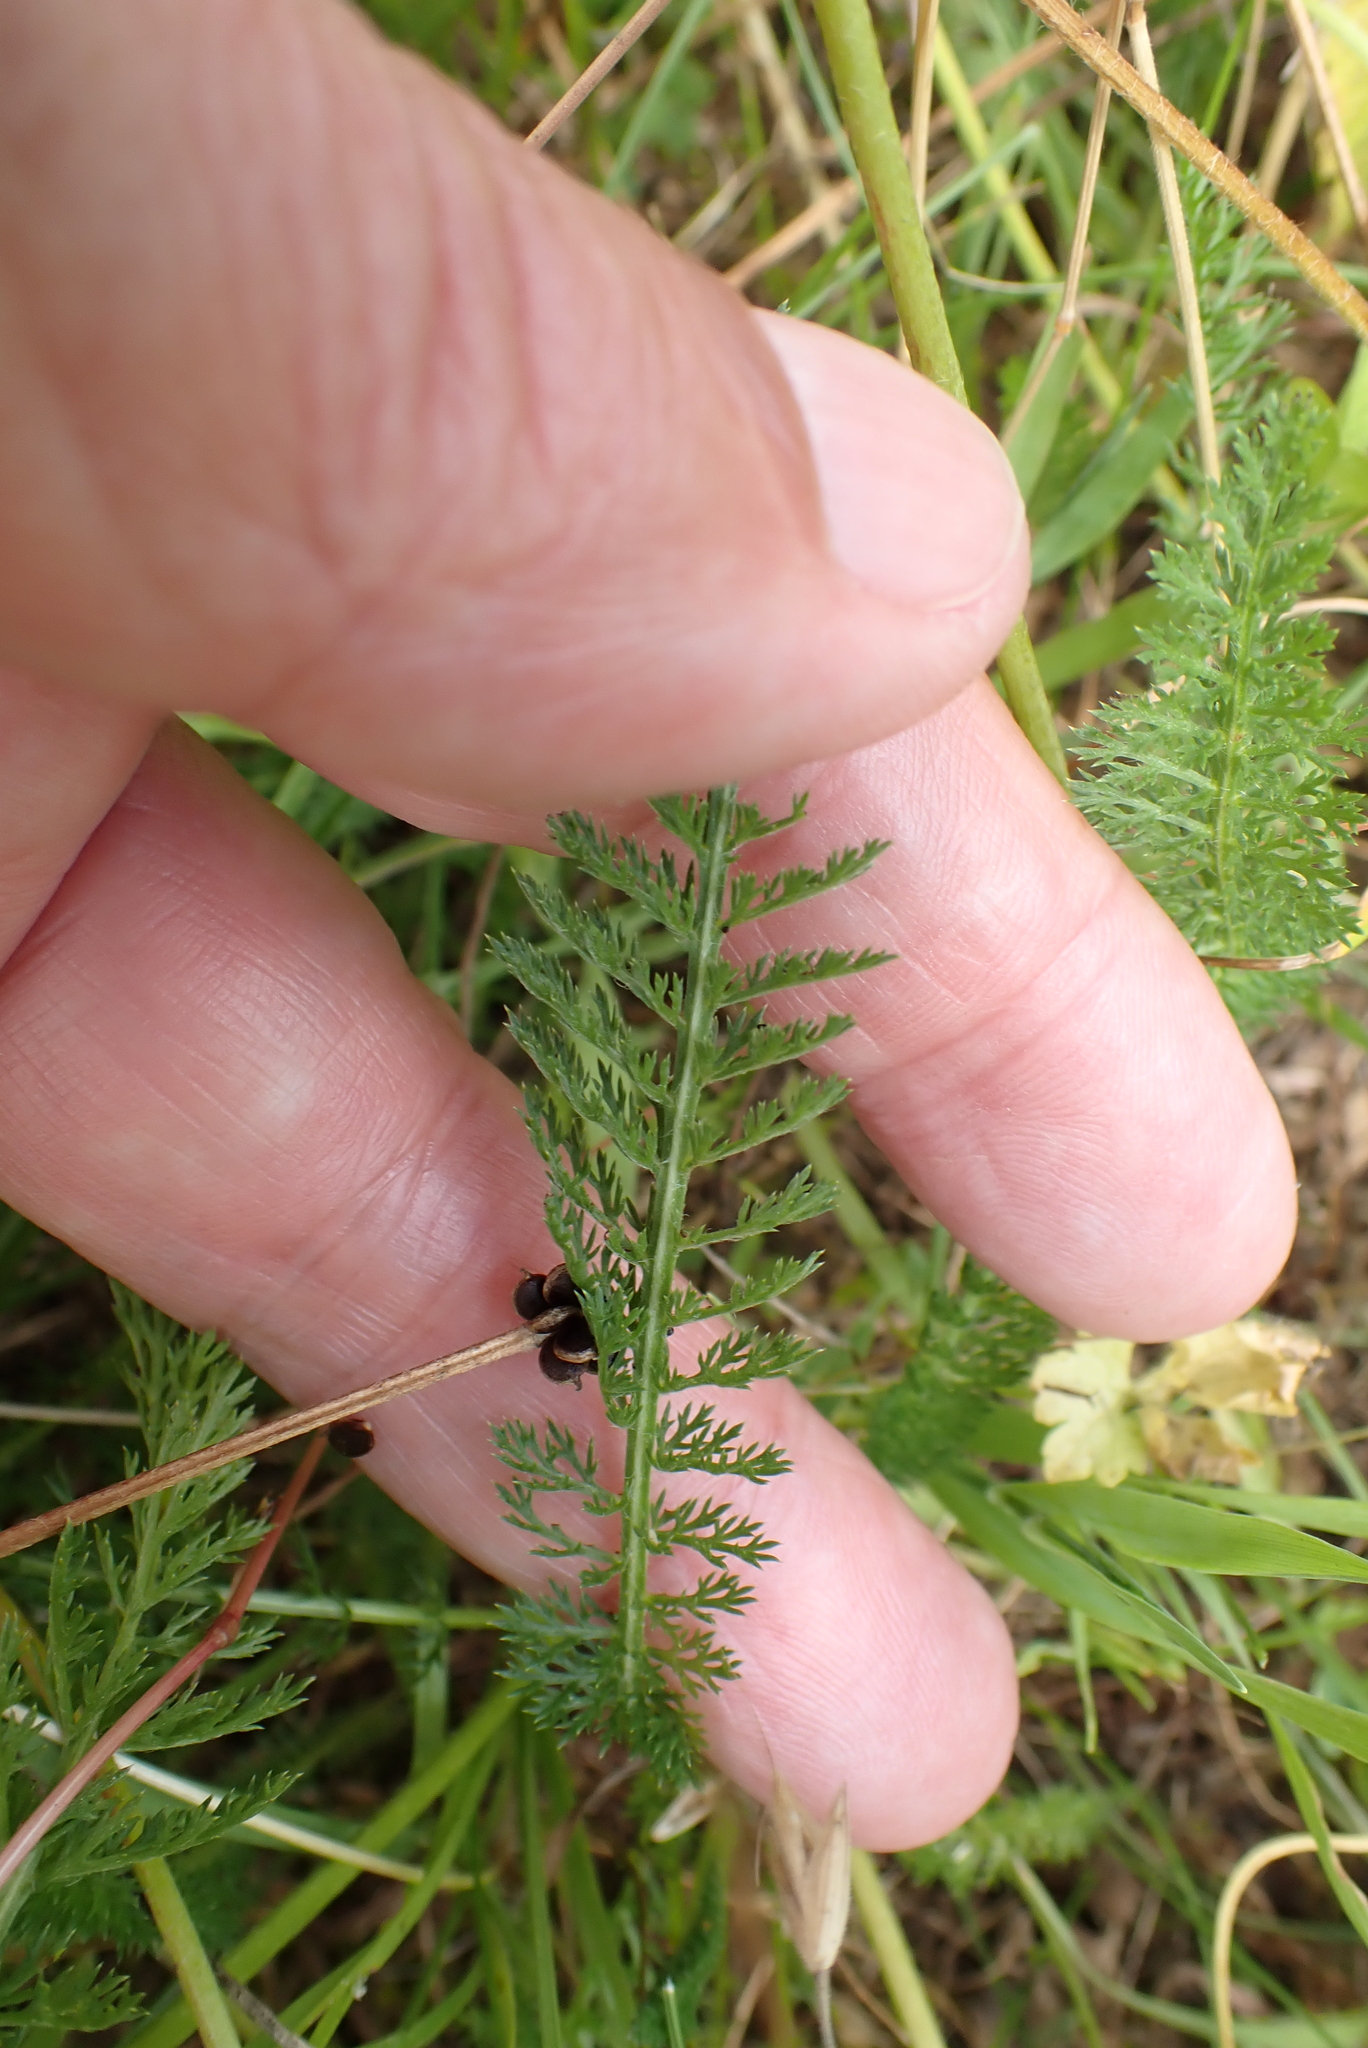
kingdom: Plantae
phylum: Tracheophyta
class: Magnoliopsida
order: Asterales
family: Asteraceae
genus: Achillea
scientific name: Achillea millefolium
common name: Yarrow
